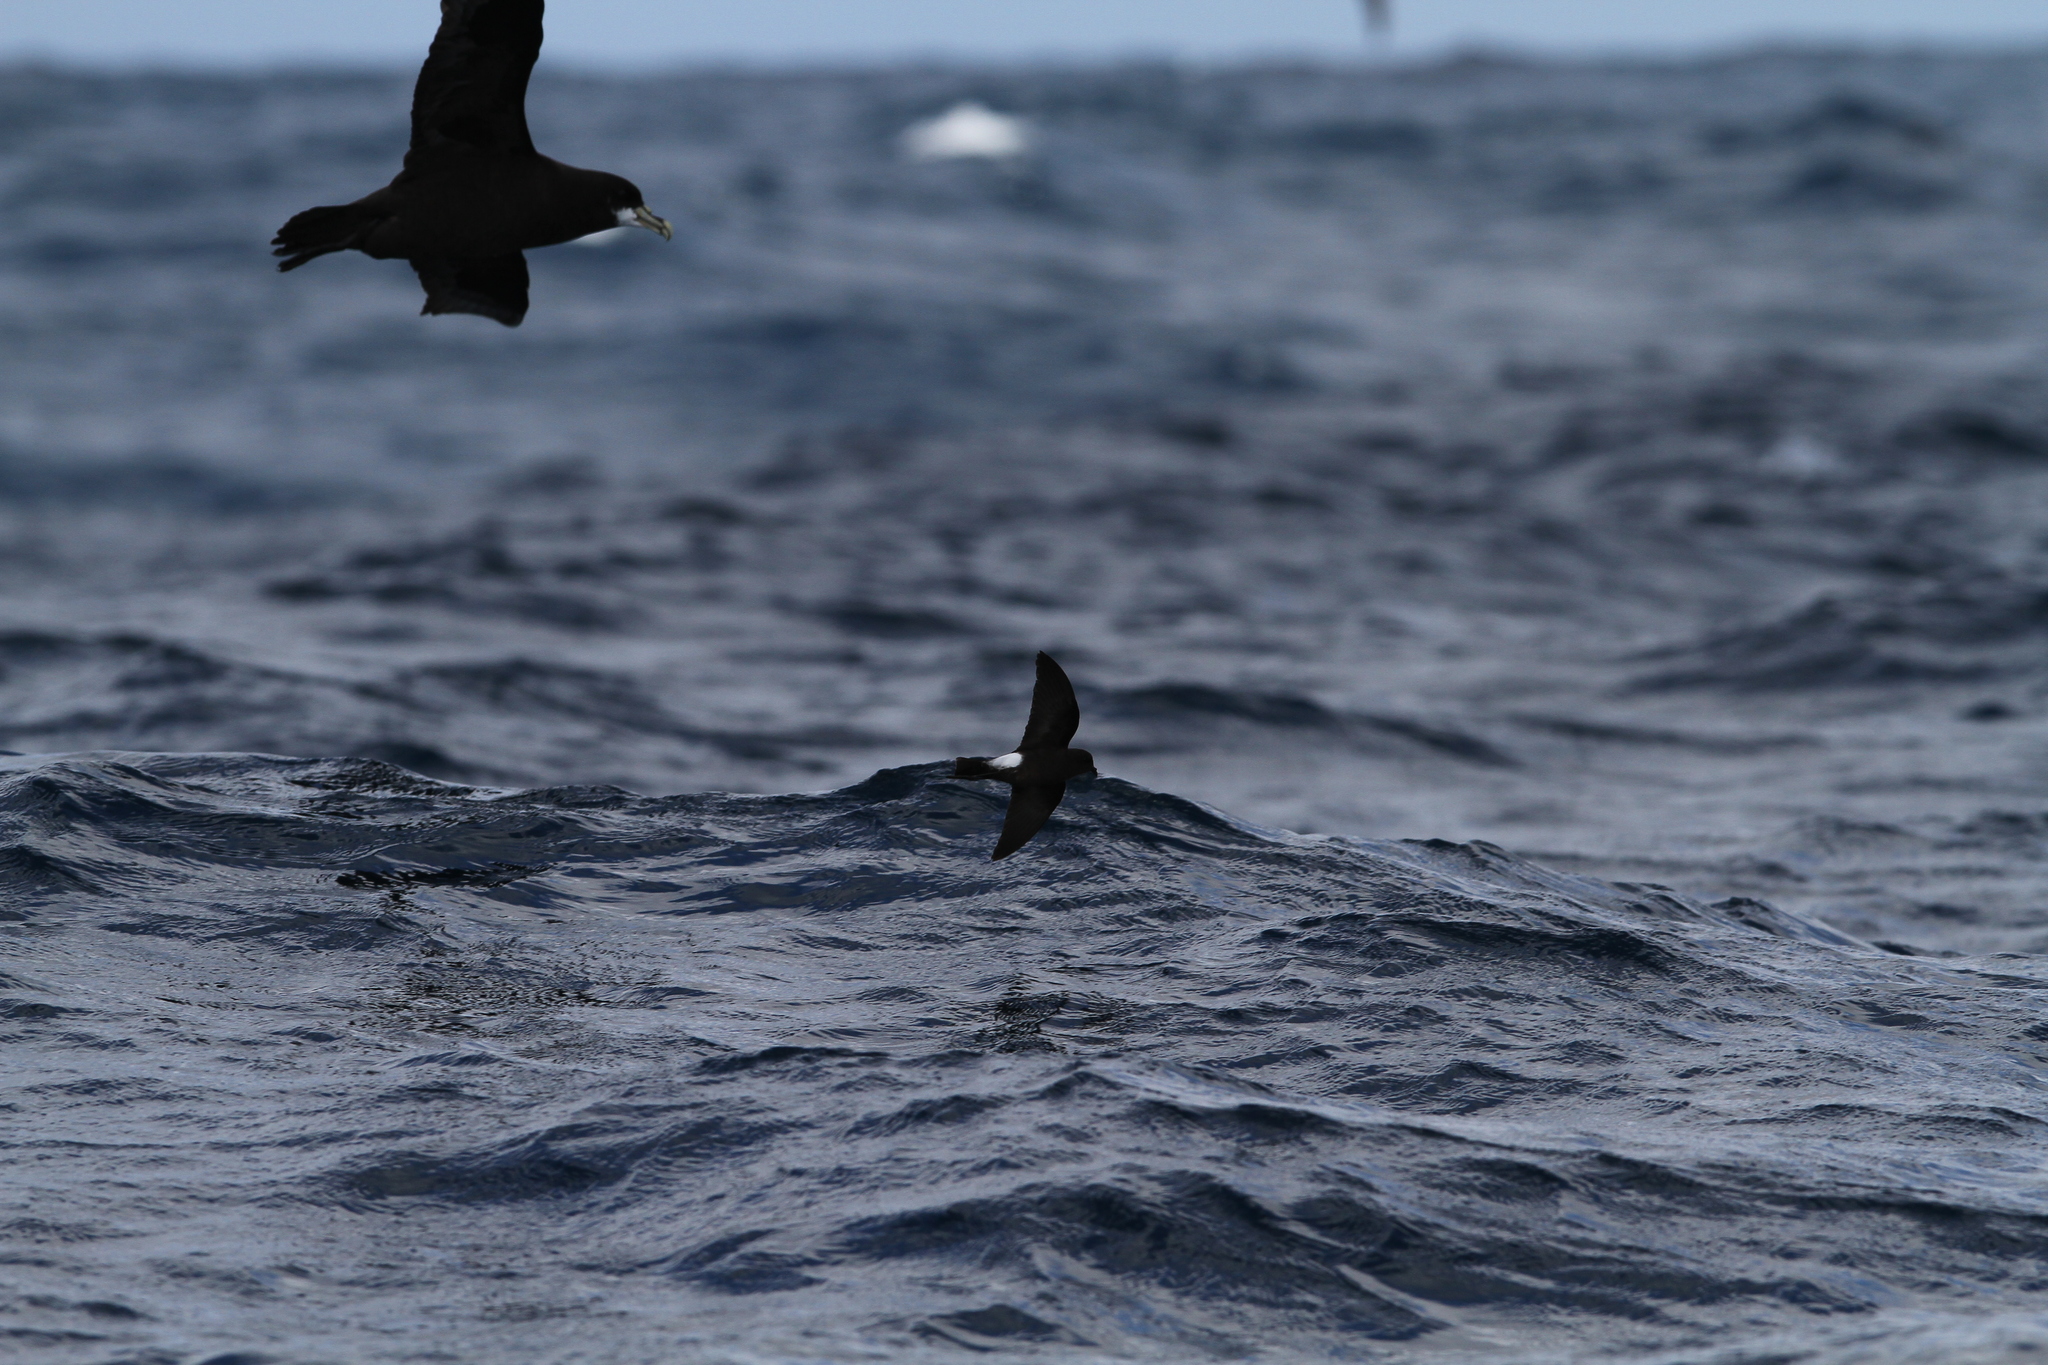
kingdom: Animalia
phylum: Chordata
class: Aves
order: Procellariiformes
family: Hydrobatidae
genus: Oceanites
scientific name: Oceanites oceanicus
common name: Wilson's storm petrel
